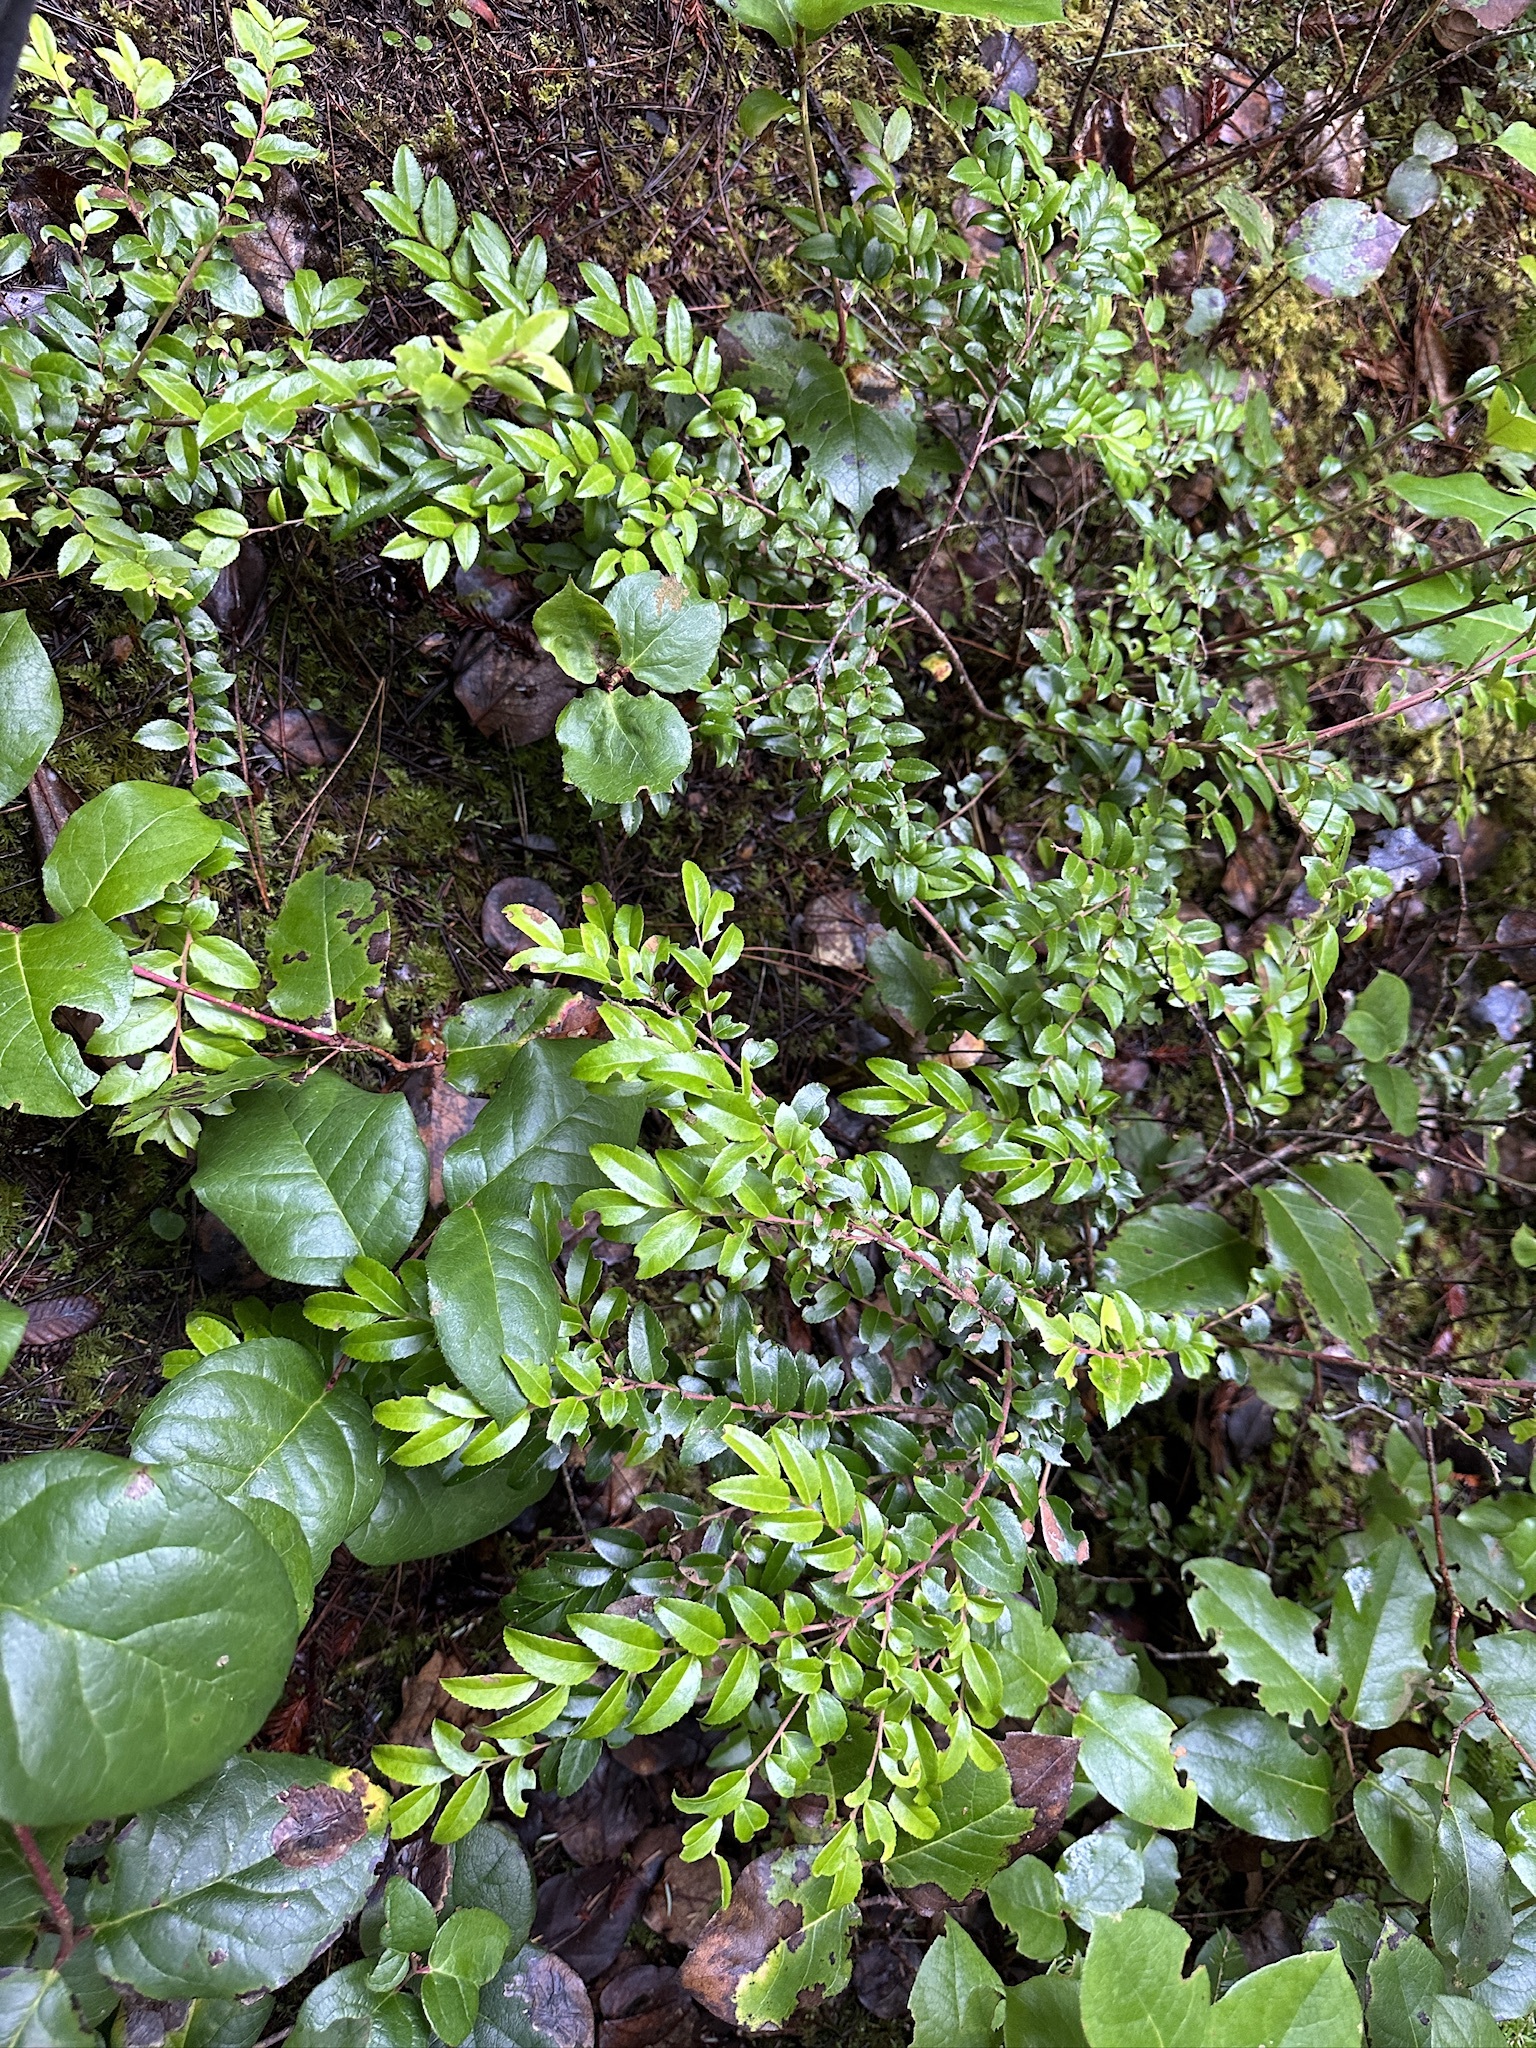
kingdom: Plantae
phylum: Tracheophyta
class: Magnoliopsida
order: Ericales
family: Ericaceae
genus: Vaccinium
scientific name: Vaccinium ovatum
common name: California-huckleberry
